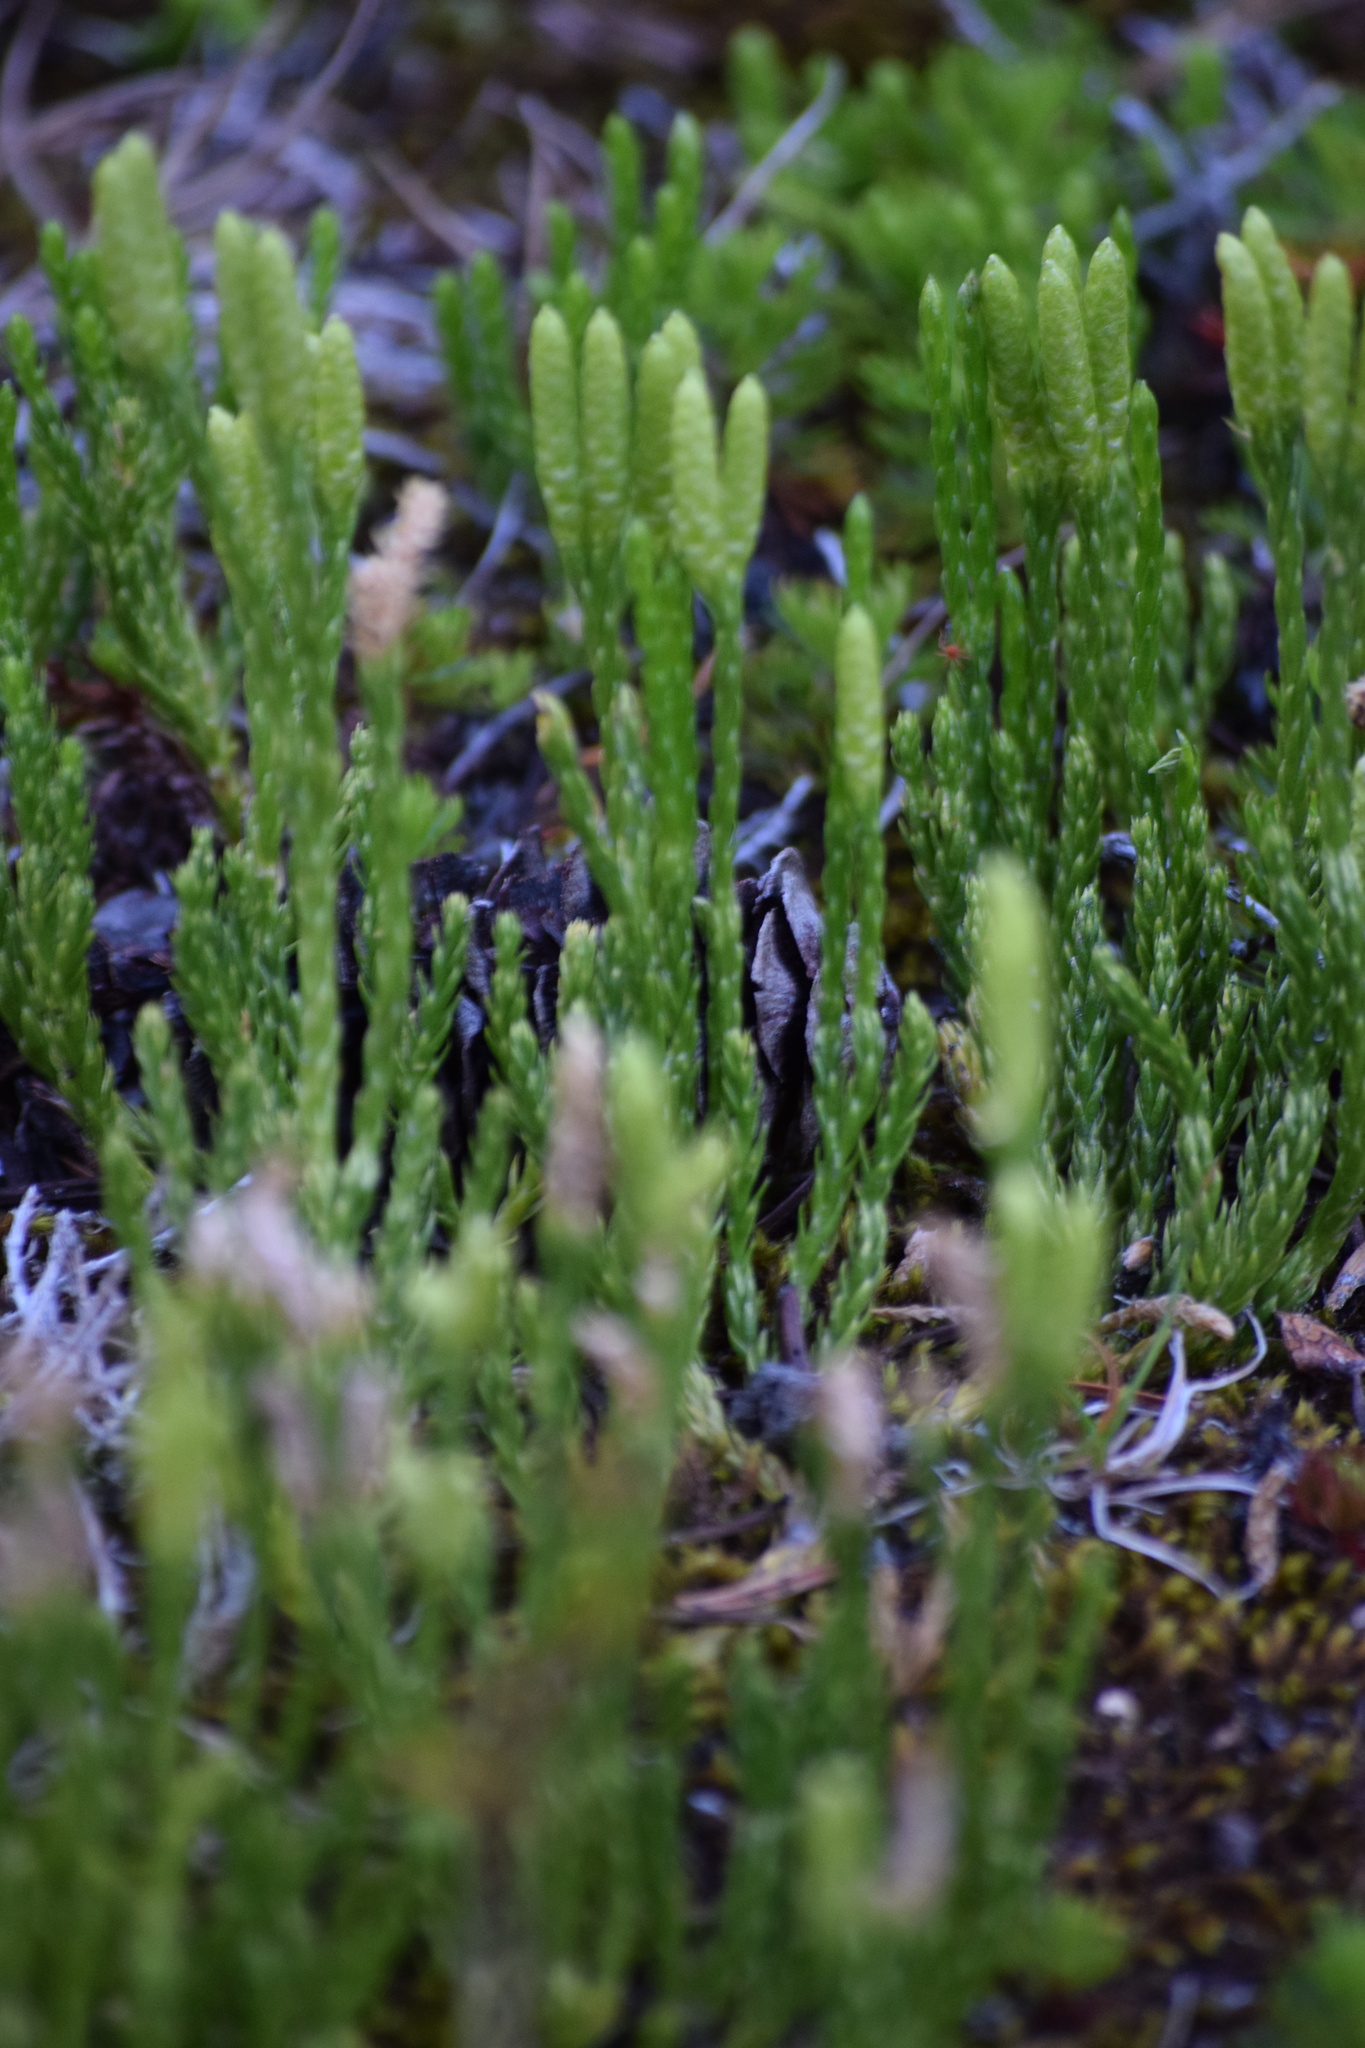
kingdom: Plantae
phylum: Tracheophyta
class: Lycopodiopsida
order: Lycopodiales
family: Lycopodiaceae
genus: Diphasiastrum
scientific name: Diphasiastrum sitchense
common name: Alaska clubmoss
